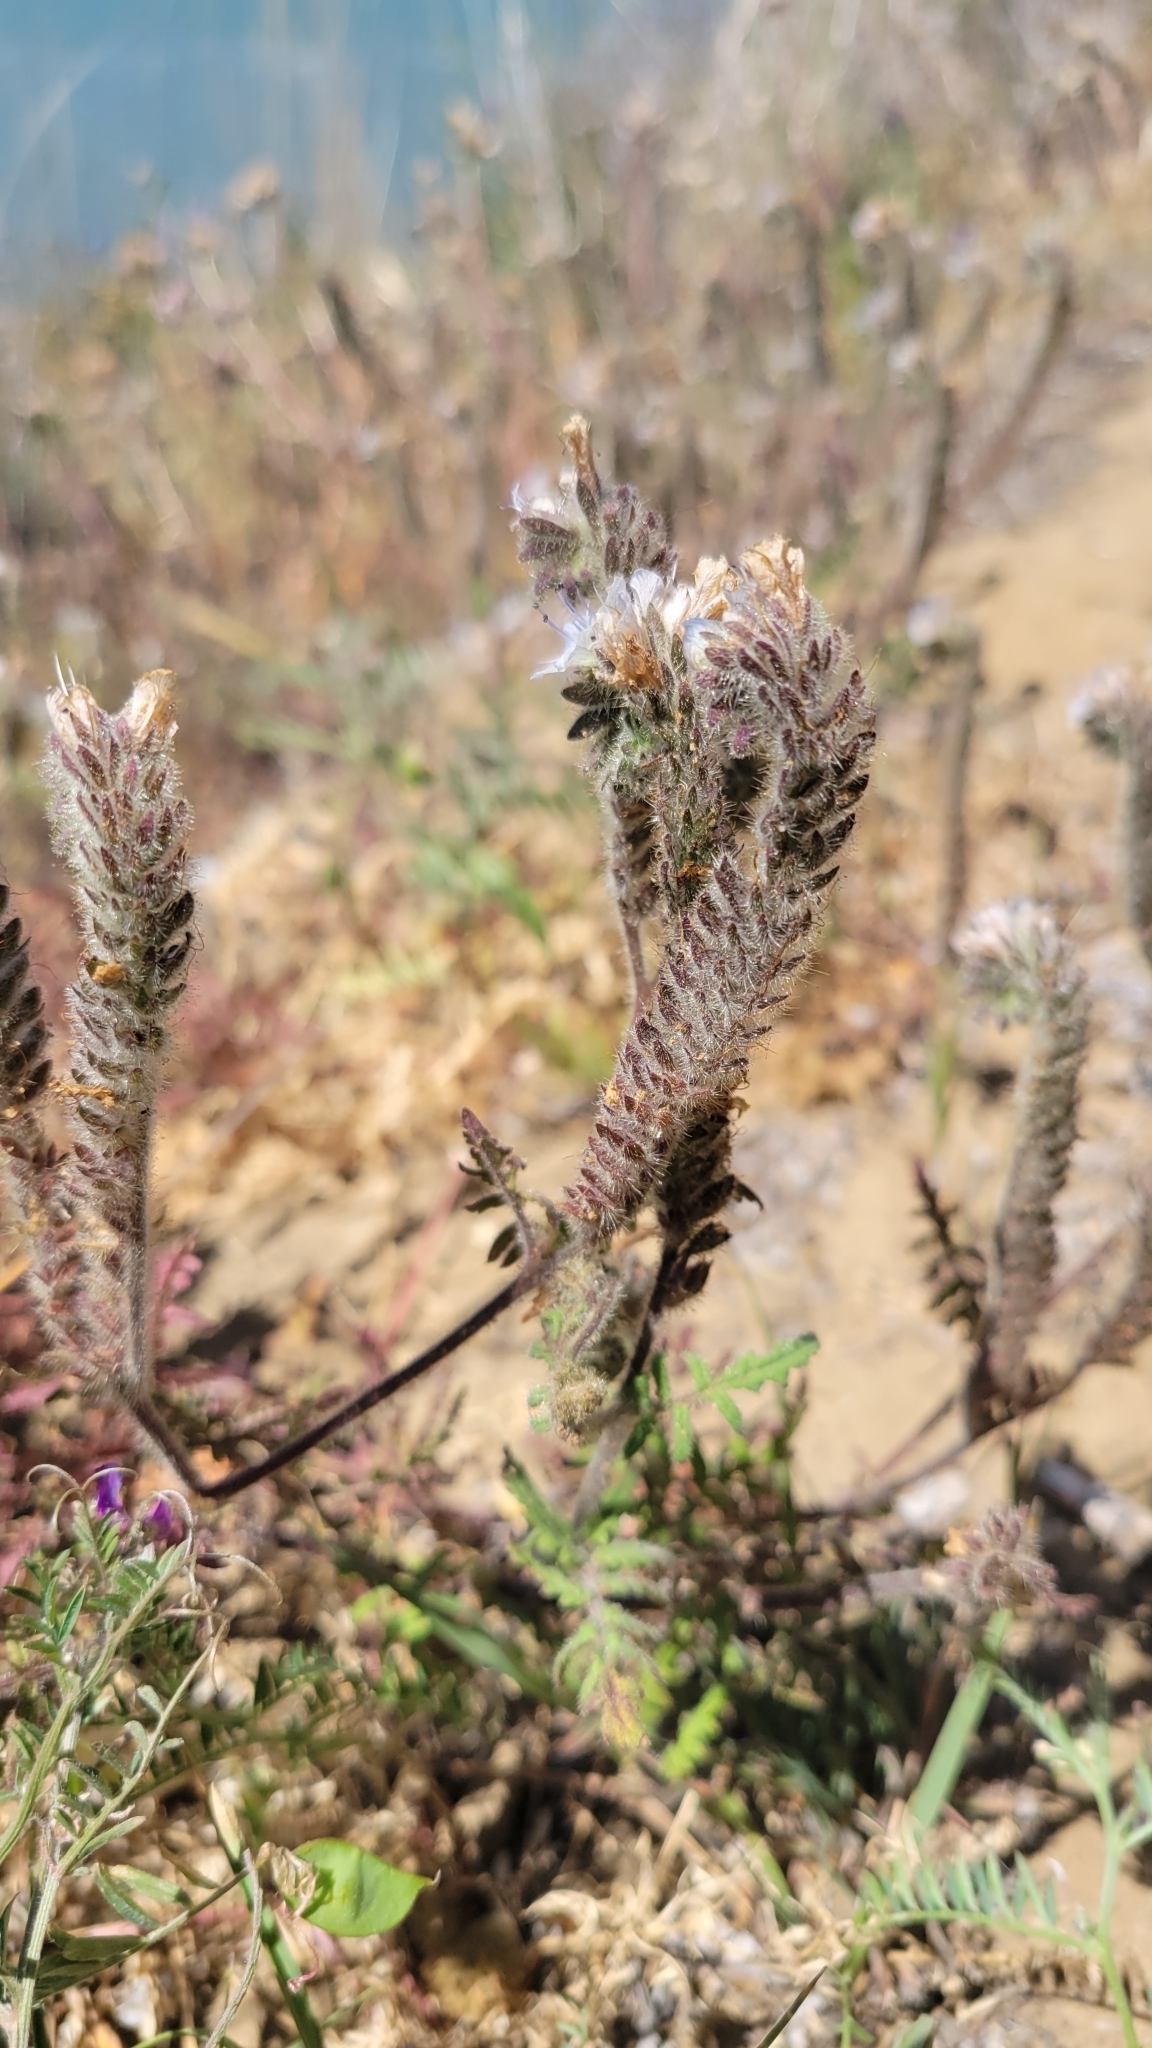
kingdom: Plantae
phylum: Tracheophyta
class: Magnoliopsida
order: Boraginales
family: Hydrophyllaceae
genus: Phacelia
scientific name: Phacelia distans
